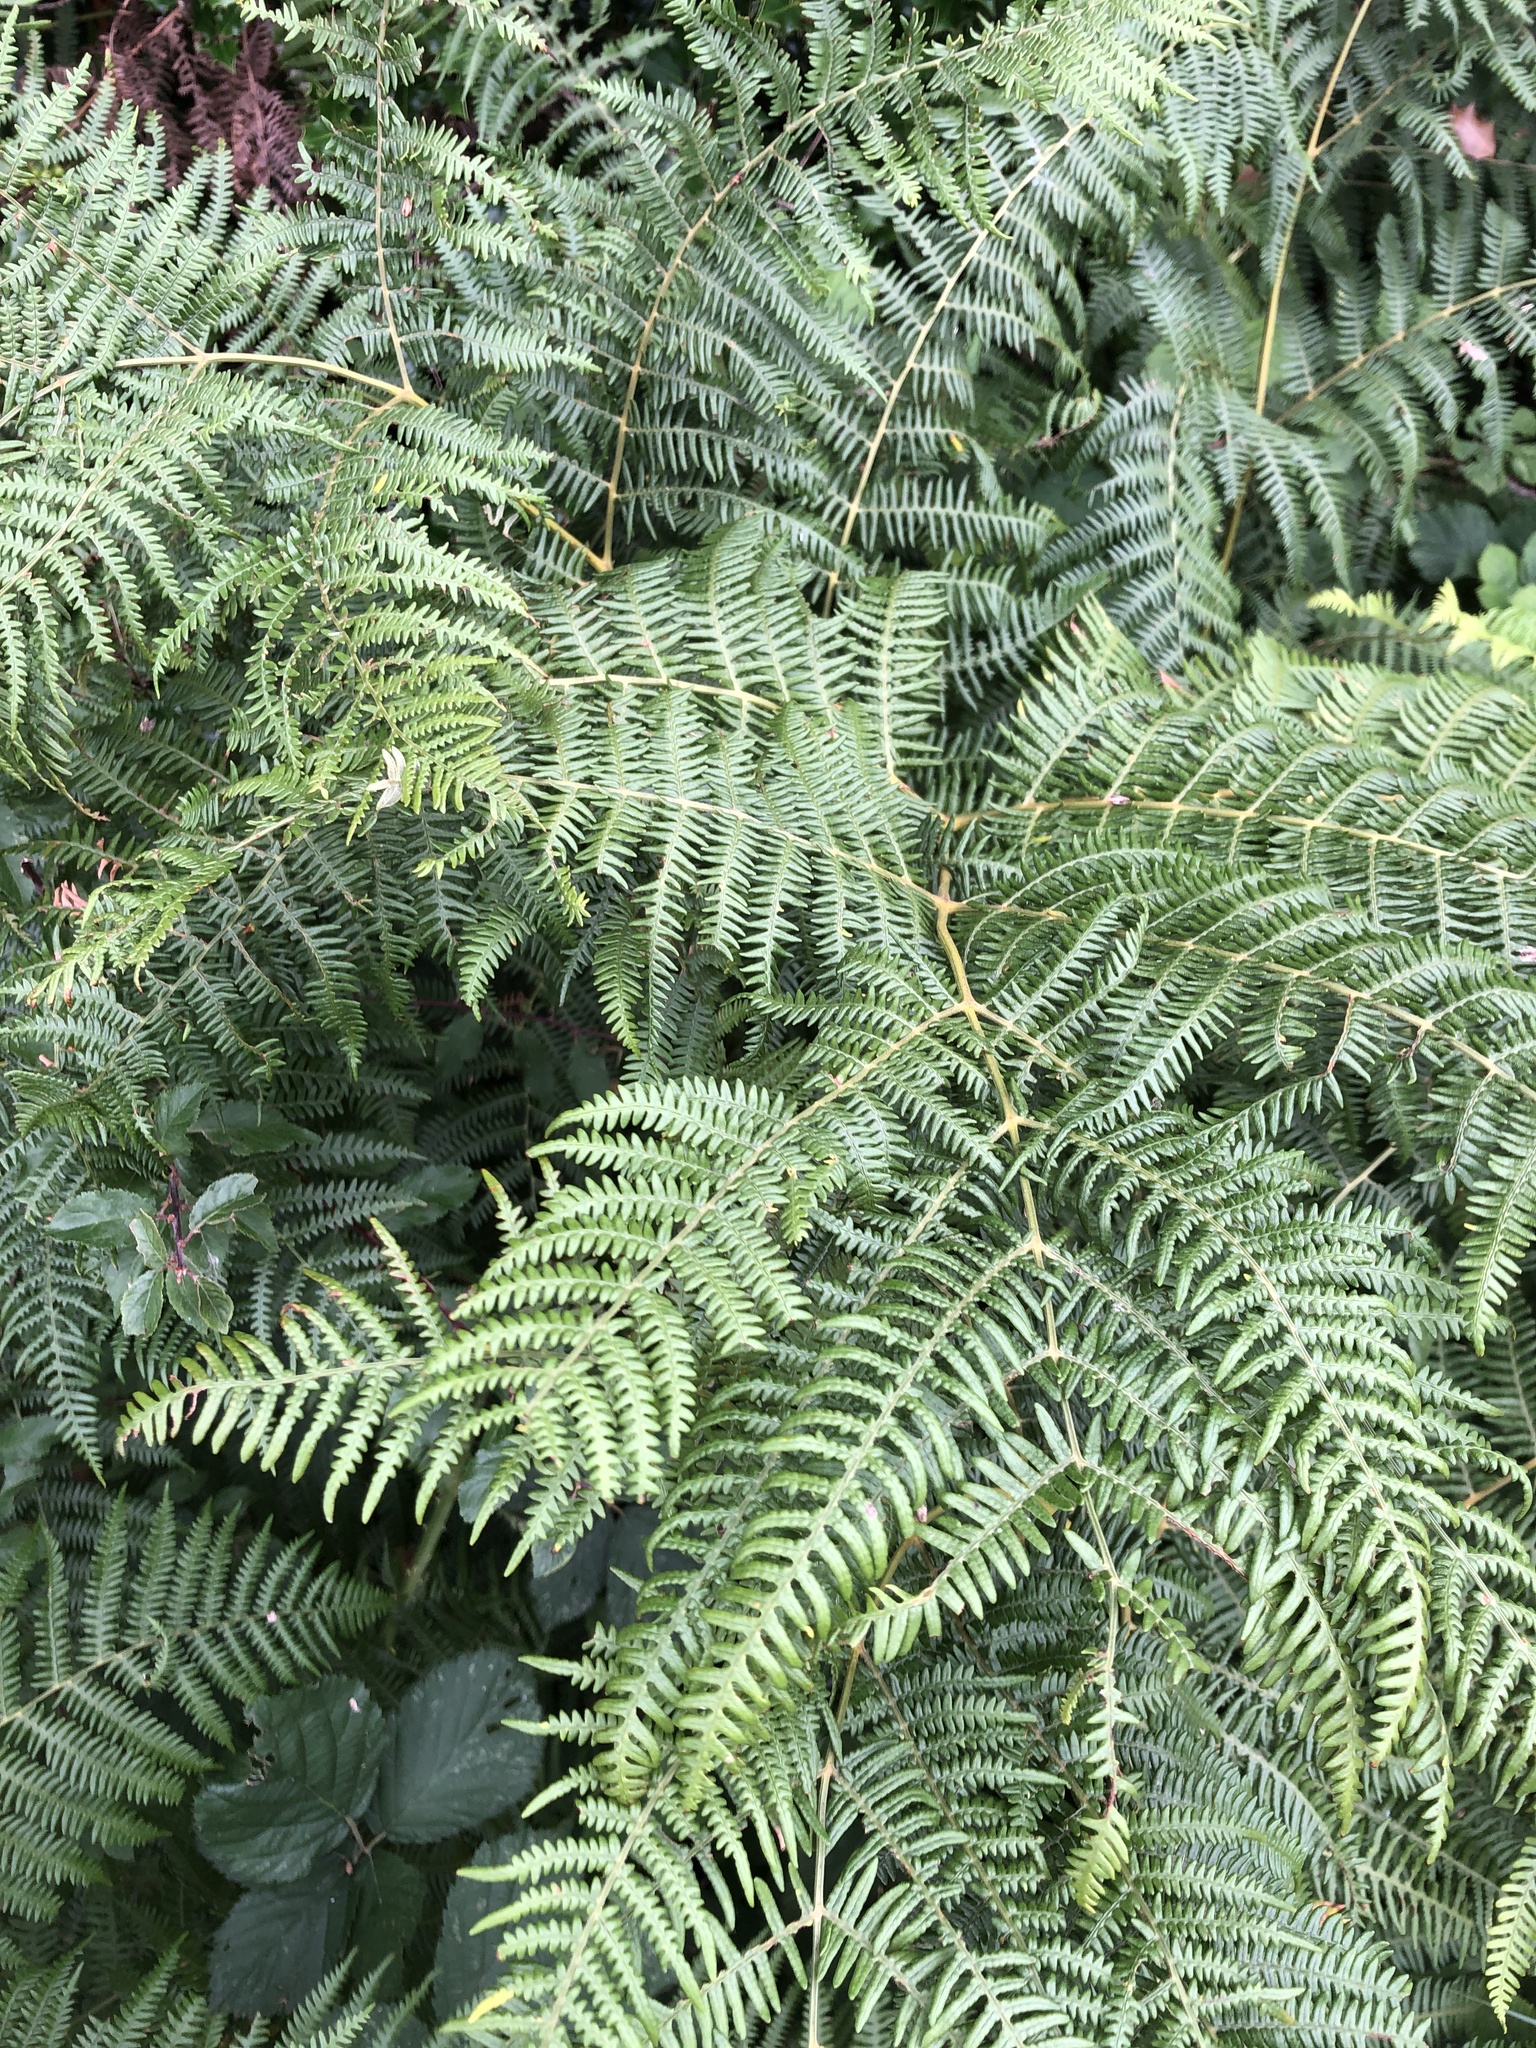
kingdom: Plantae
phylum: Tracheophyta
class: Polypodiopsida
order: Polypodiales
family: Dennstaedtiaceae
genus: Pteridium
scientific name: Pteridium aquilinum
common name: Bracken
